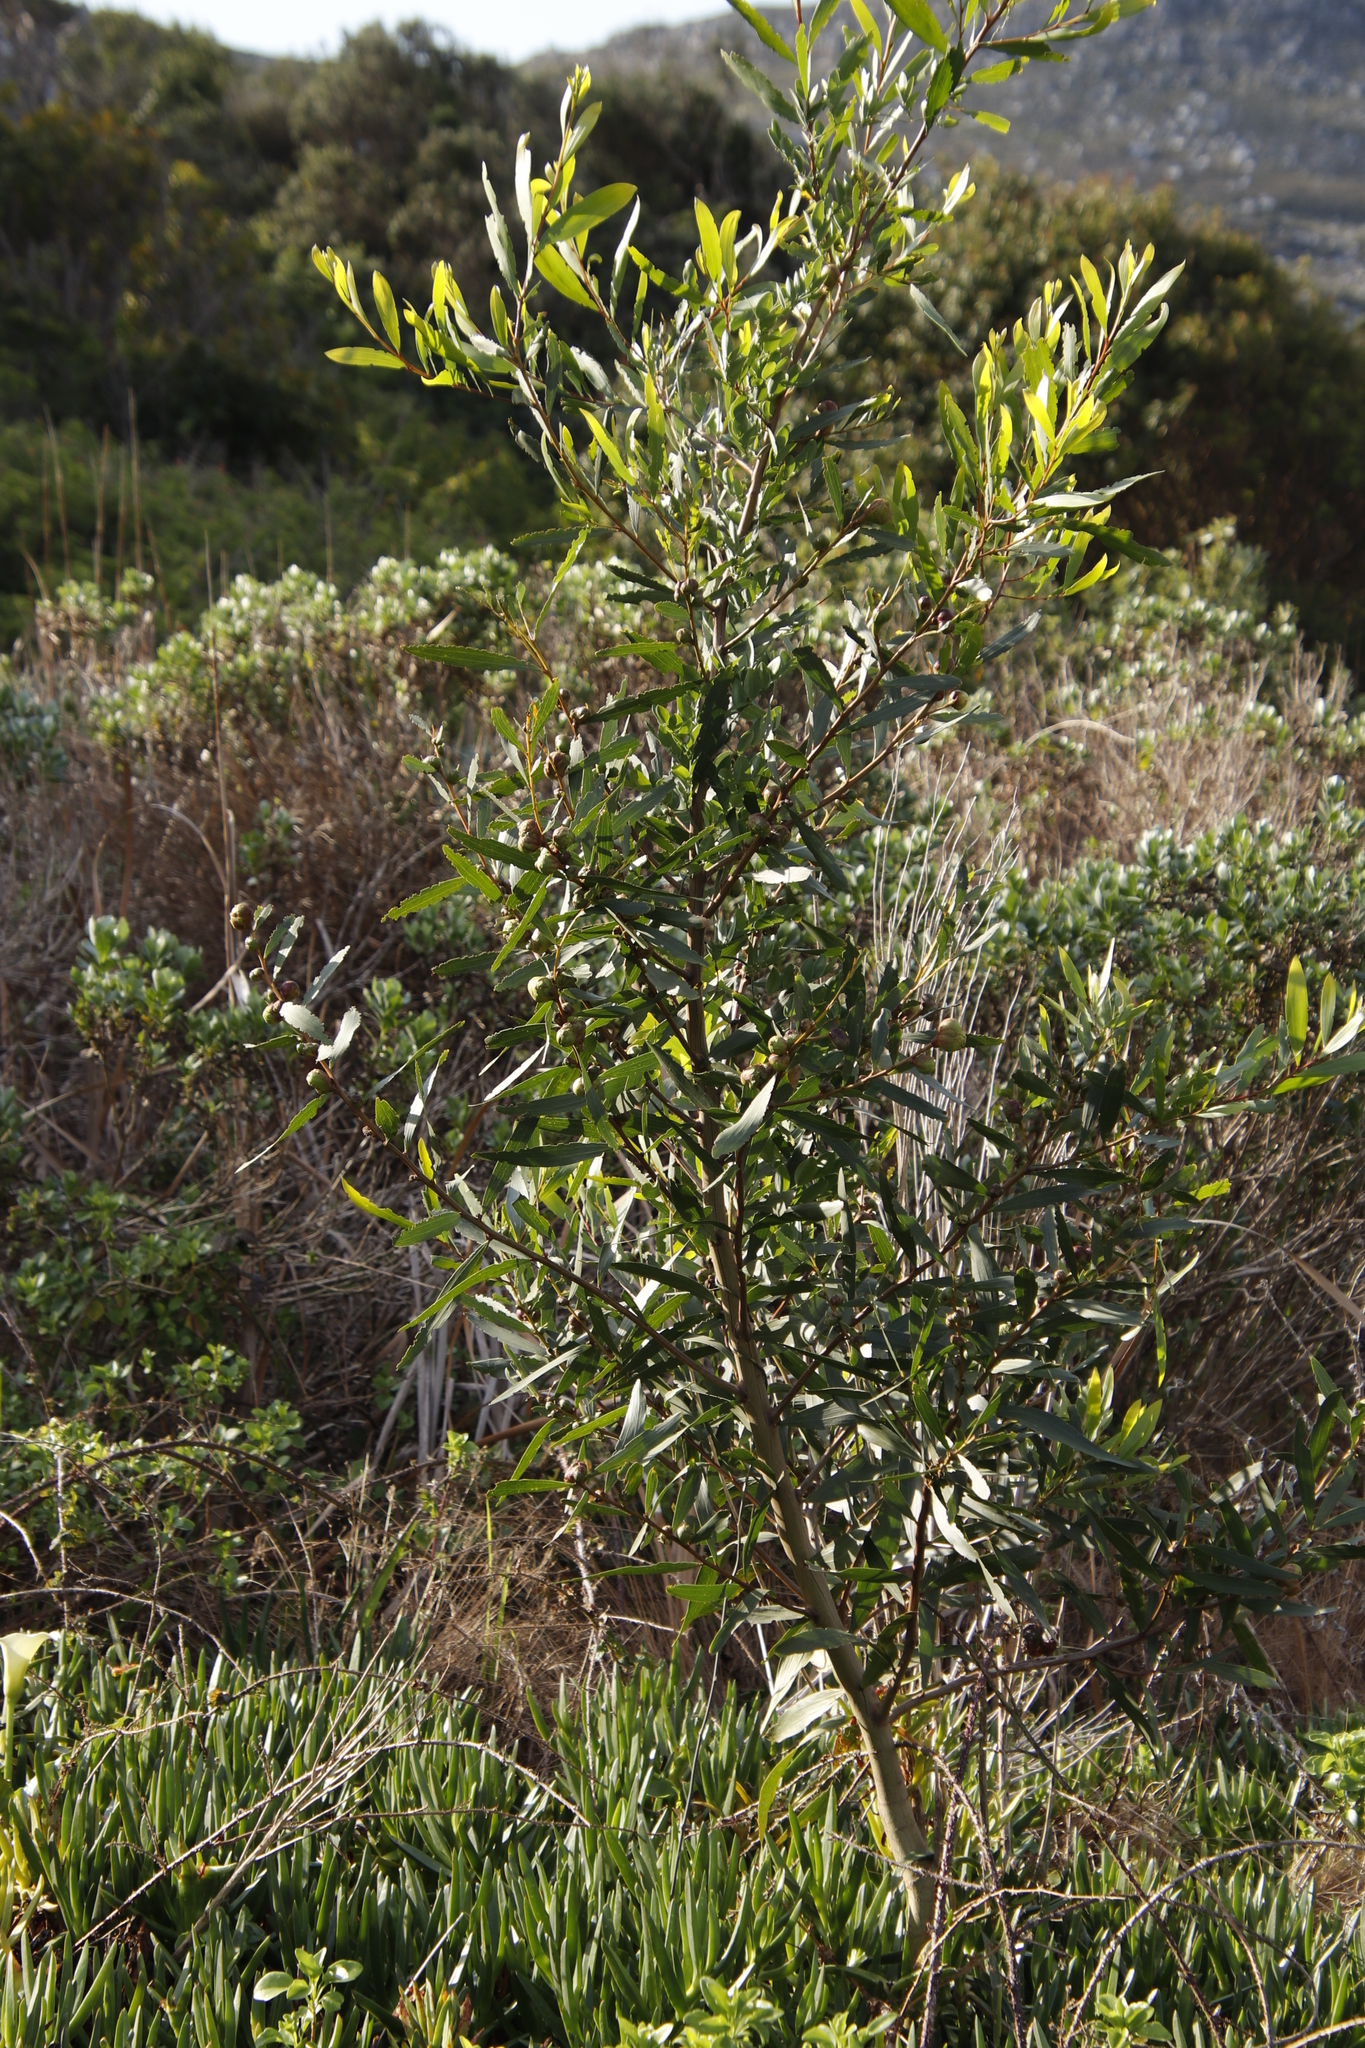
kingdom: Plantae
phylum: Tracheophyta
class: Magnoliopsida
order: Fabales
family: Fabaceae
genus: Acacia
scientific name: Acacia longifolia
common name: Sydney golden wattle
